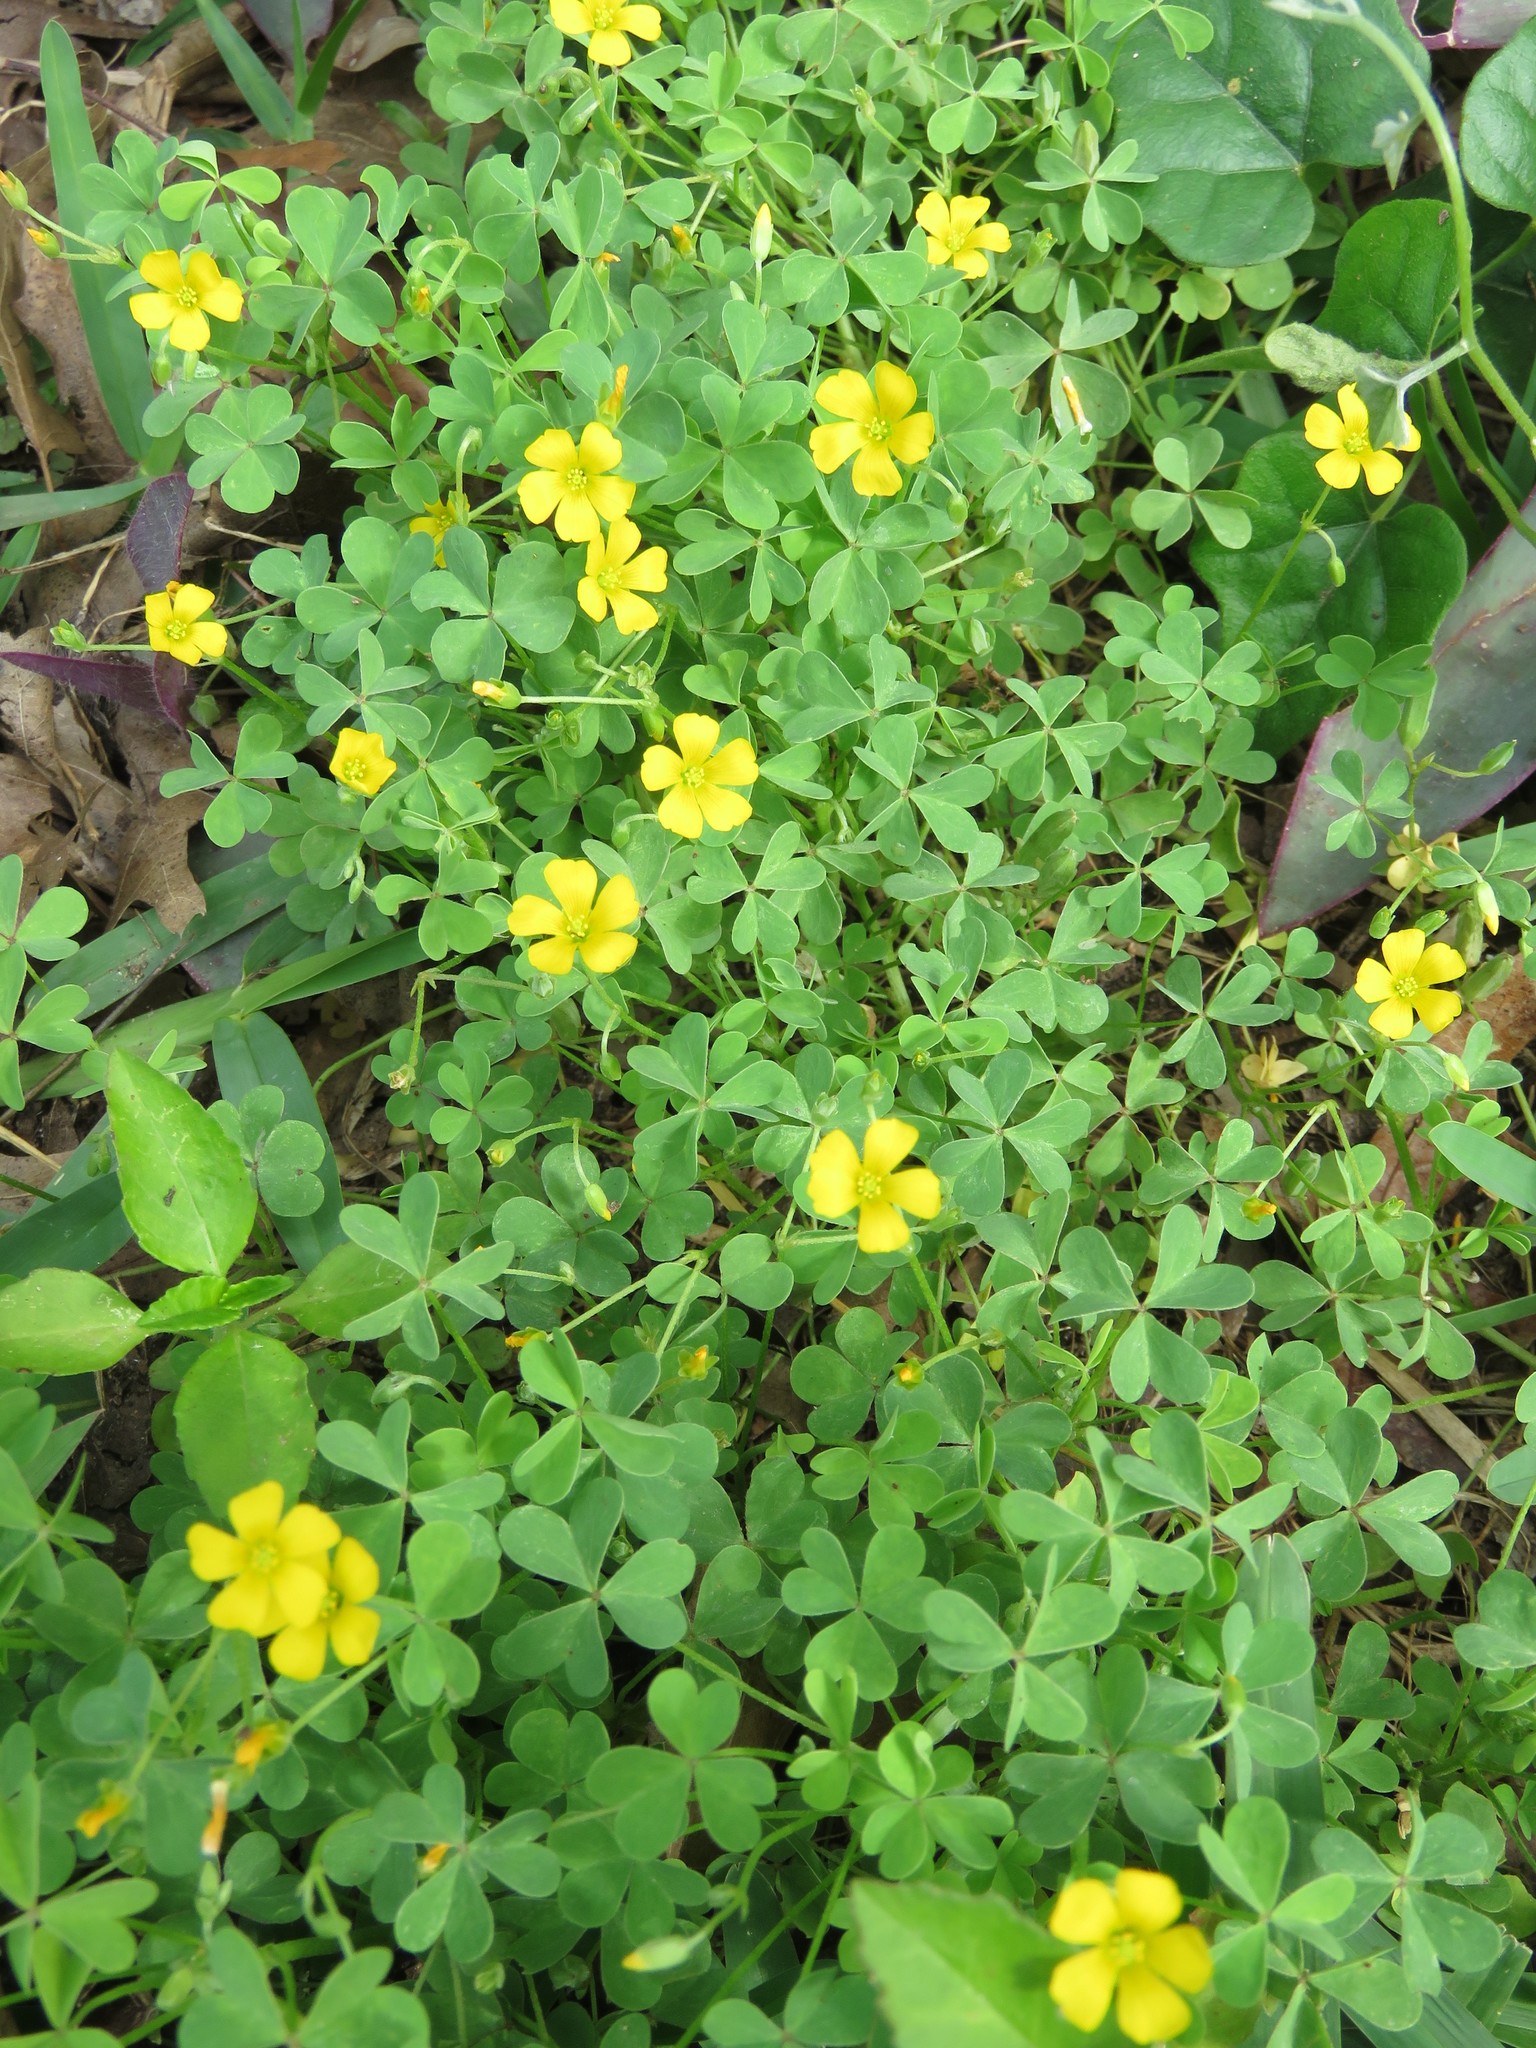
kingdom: Plantae
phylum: Tracheophyta
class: Magnoliopsida
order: Oxalidales
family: Oxalidaceae
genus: Oxalis
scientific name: Oxalis dillenii
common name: Sussex yellow-sorrel
